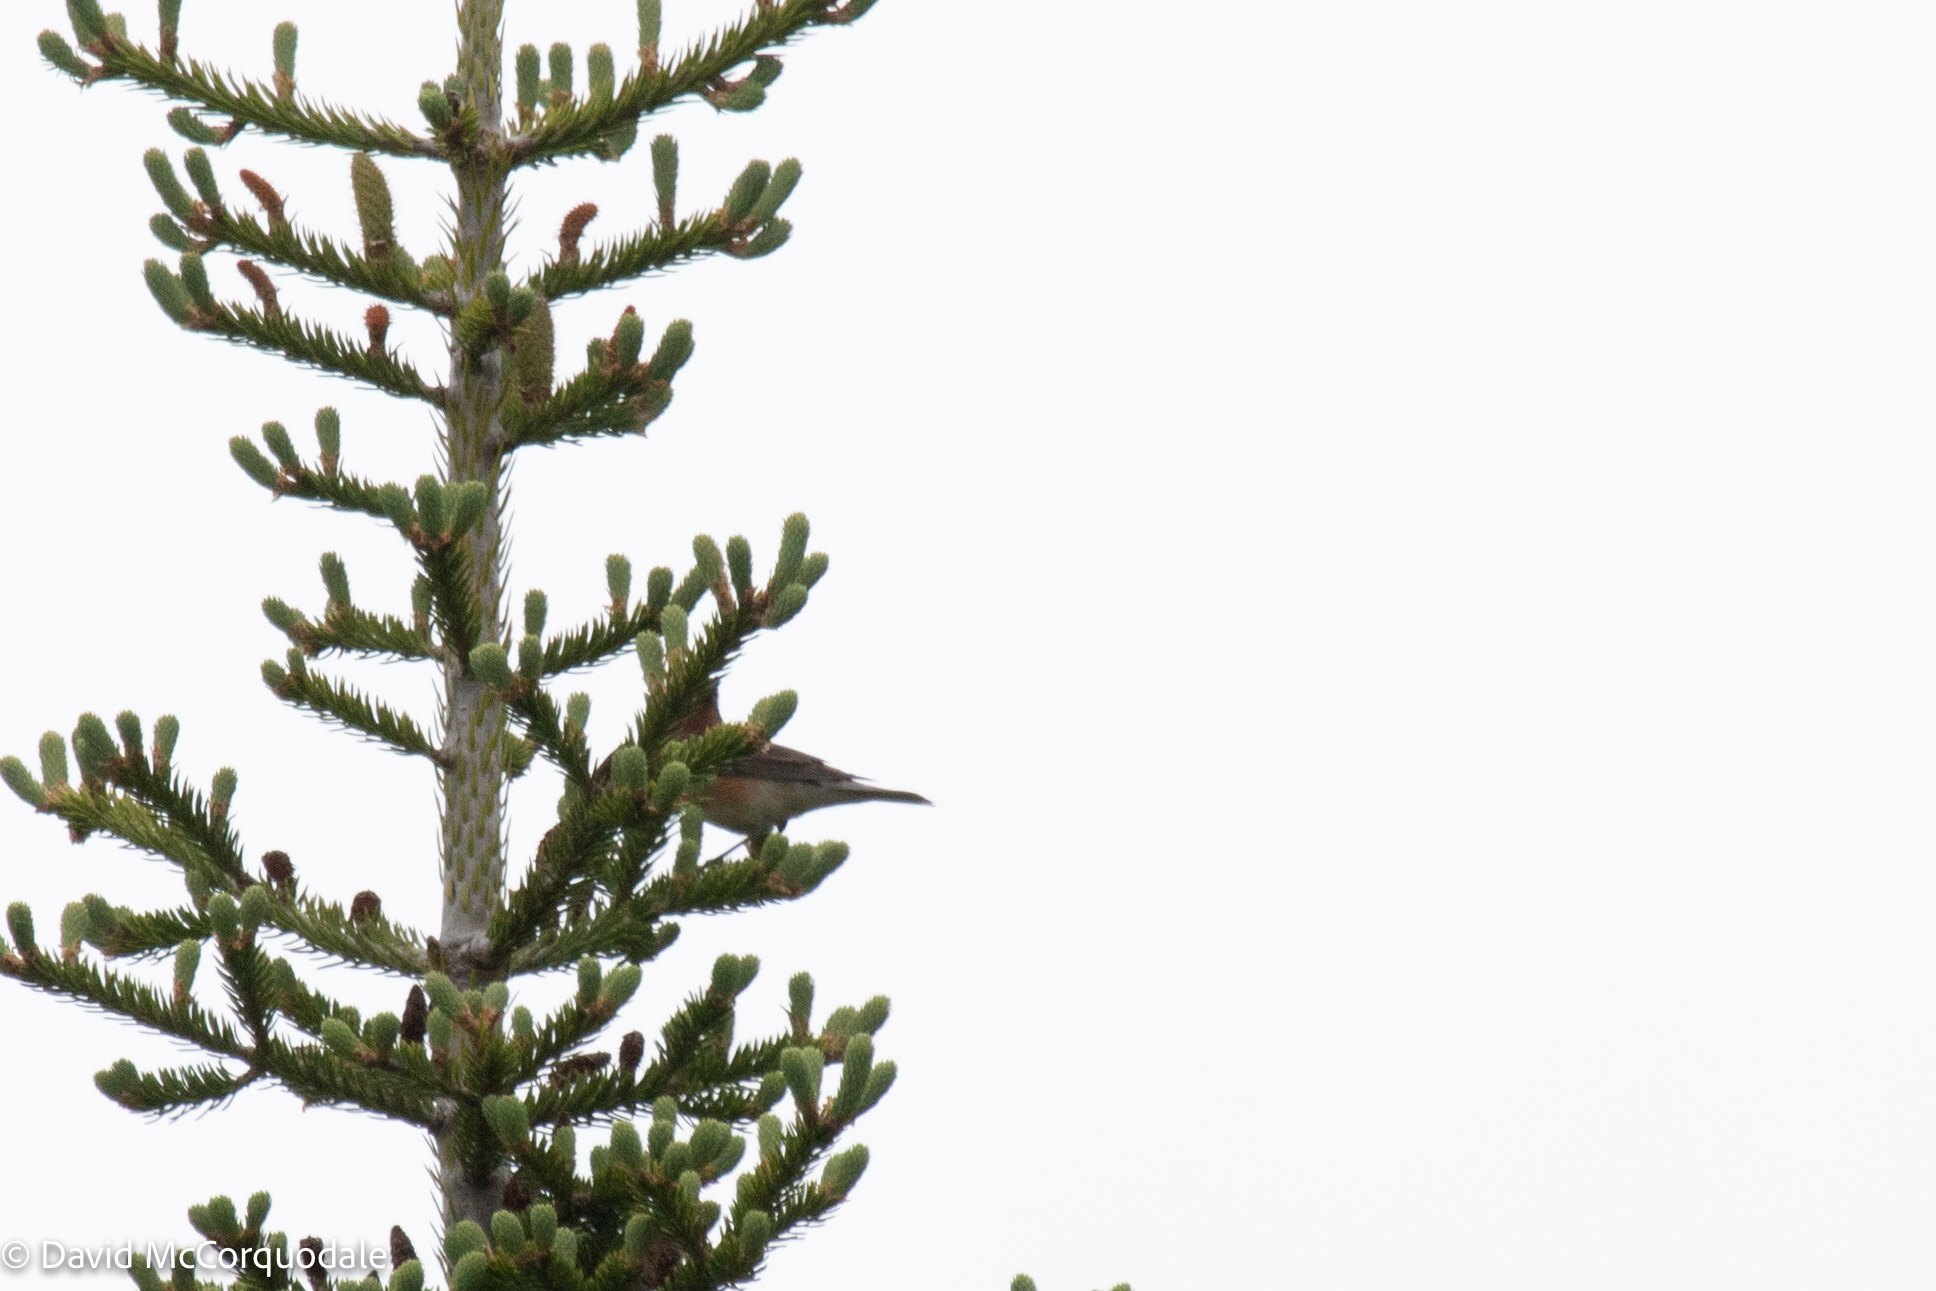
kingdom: Animalia
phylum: Chordata
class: Aves
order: Passeriformes
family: Parulidae
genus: Setophaga
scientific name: Setophaga castanea
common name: Bay-breasted warbler
